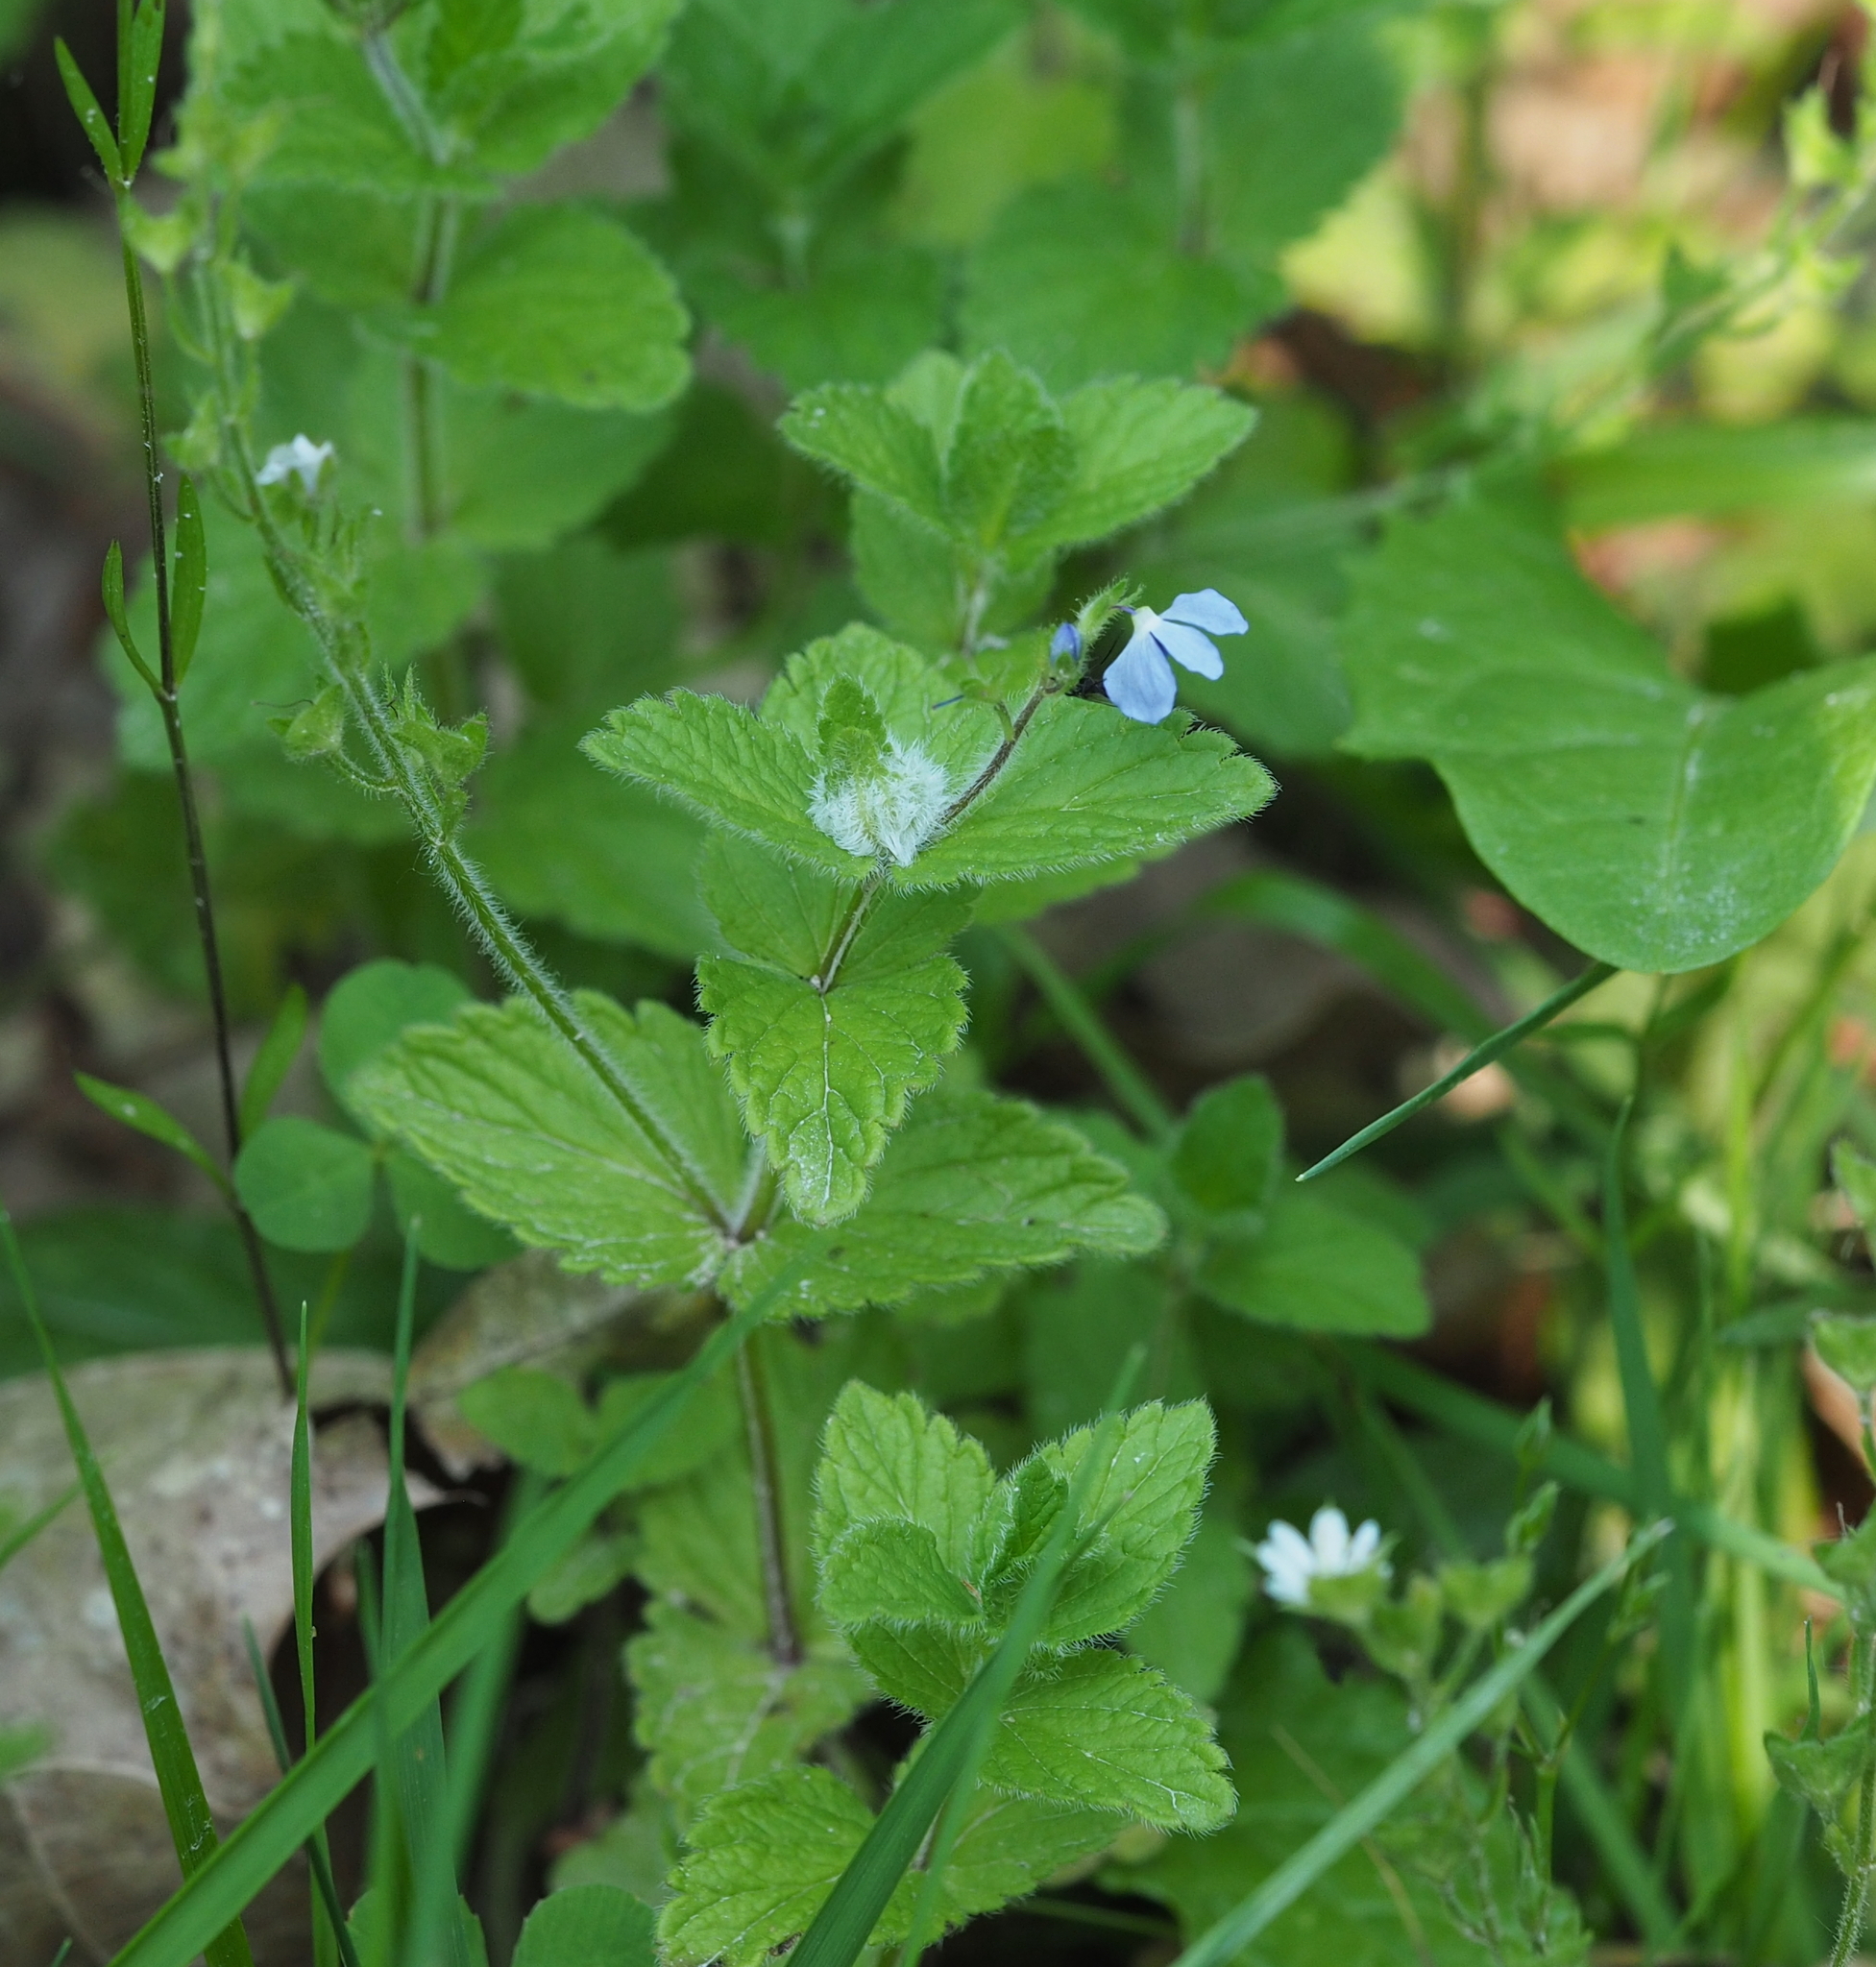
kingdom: Animalia
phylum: Arthropoda
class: Insecta
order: Diptera
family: Cecidomyiidae
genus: Jaapiella
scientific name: Jaapiella veronicae
